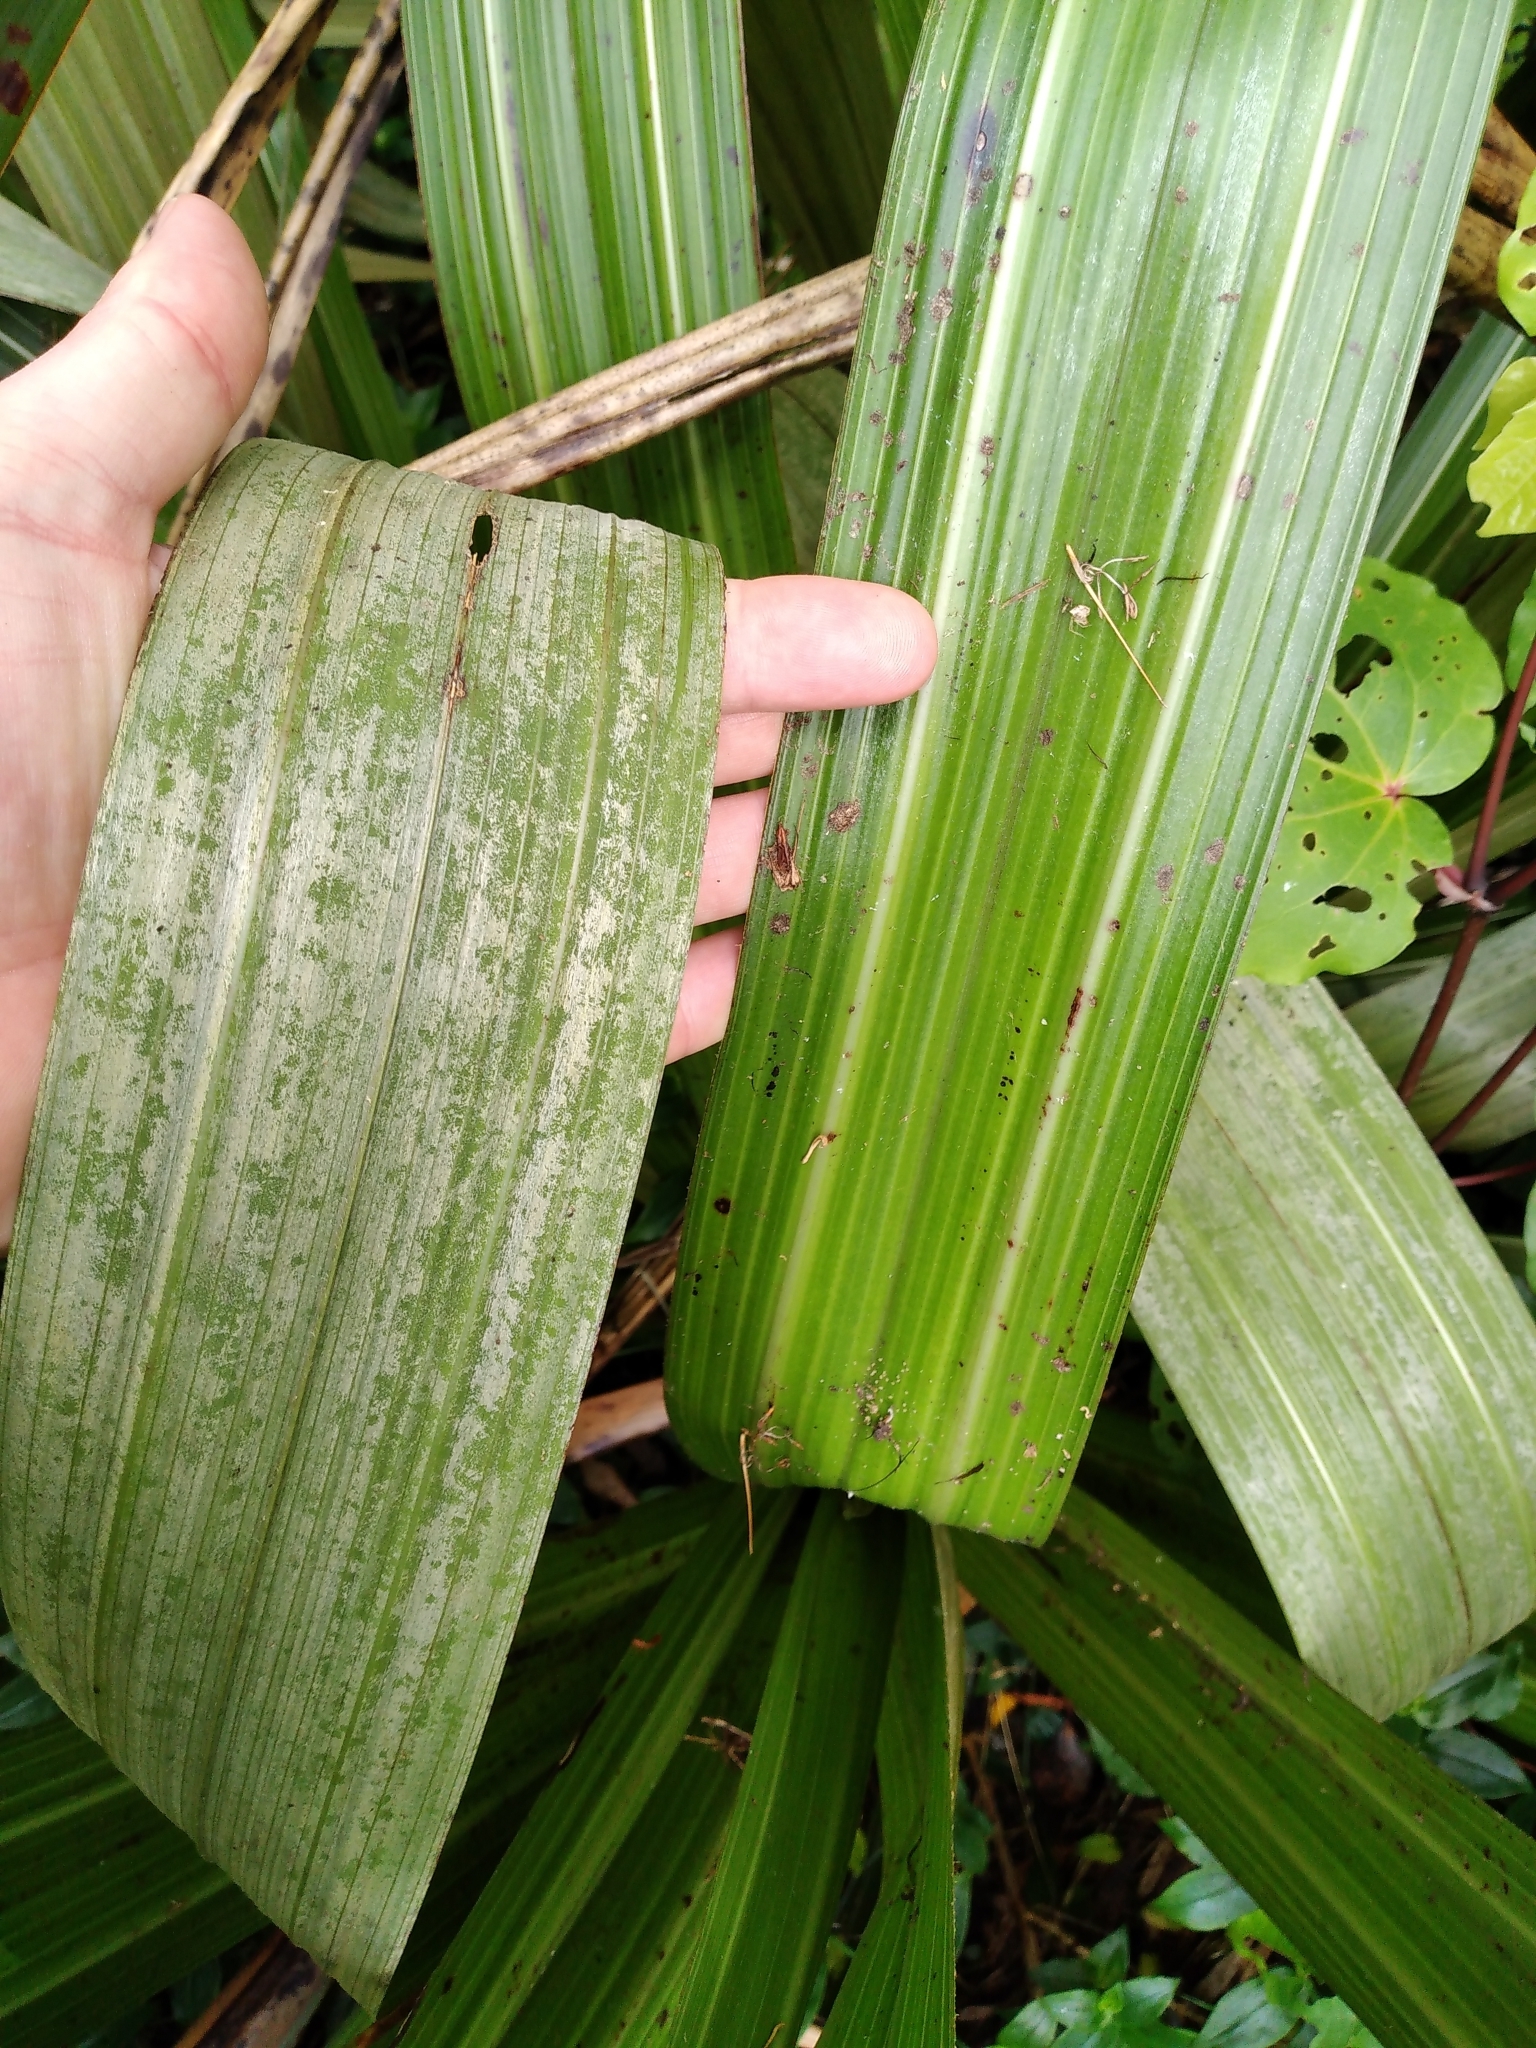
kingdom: Plantae
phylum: Tracheophyta
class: Liliopsida
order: Asparagales
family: Asteliaceae
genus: Astelia
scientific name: Astelia grandis
